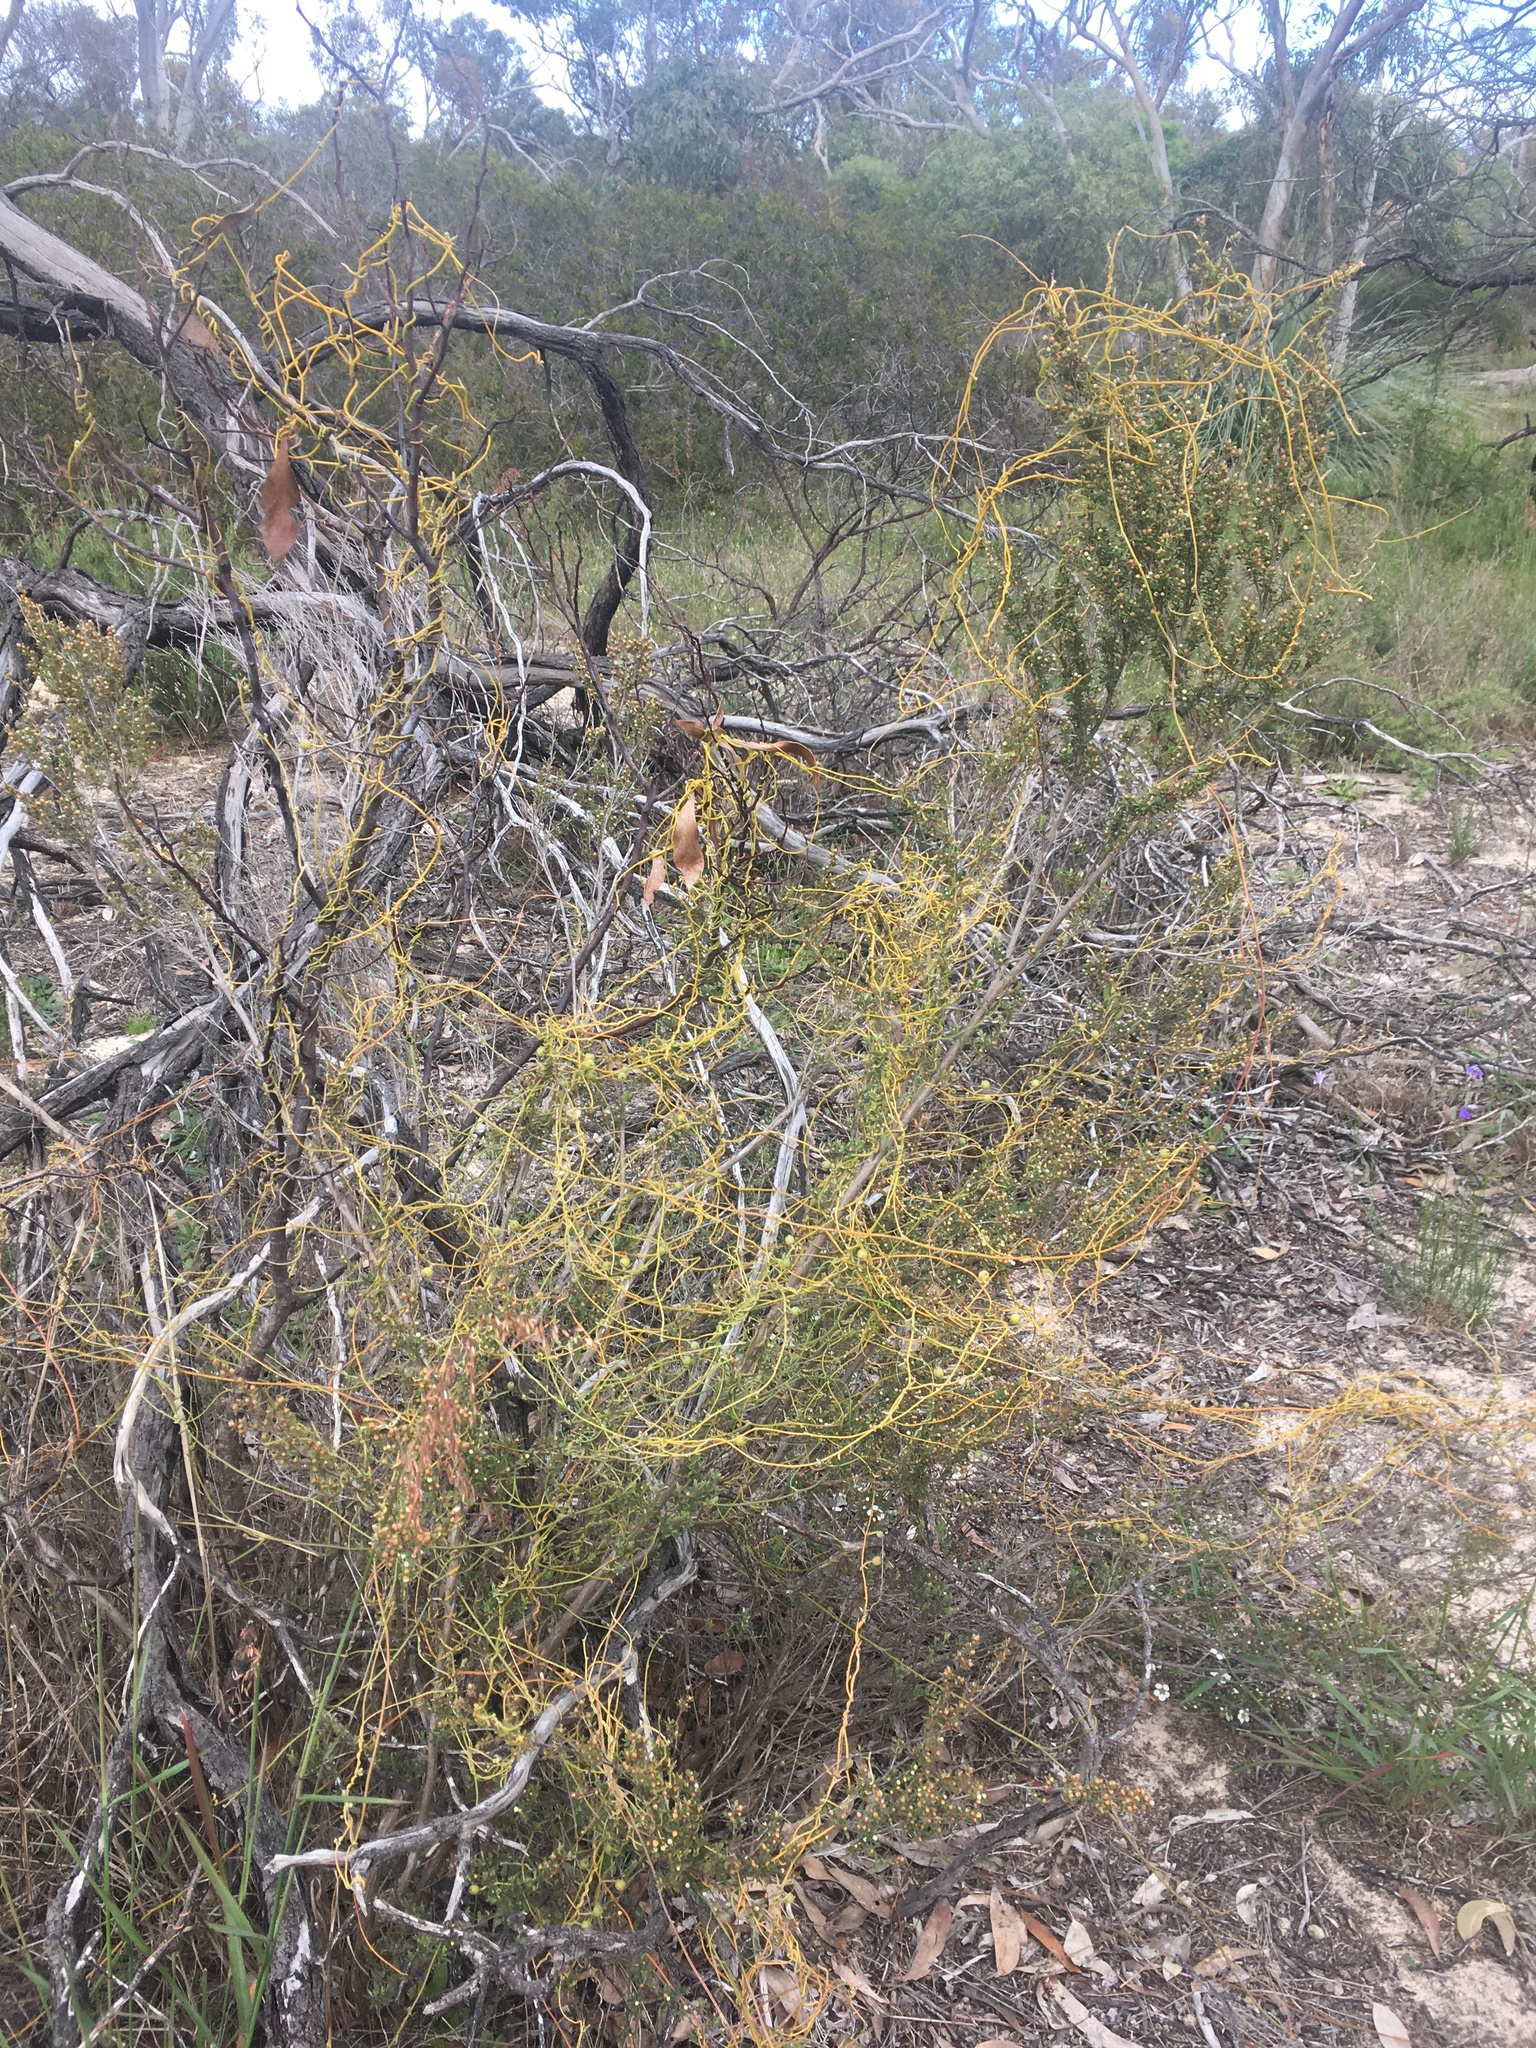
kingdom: Plantae
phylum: Tracheophyta
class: Magnoliopsida
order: Laurales
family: Lauraceae
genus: Cassytha
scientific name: Cassytha pubescens
